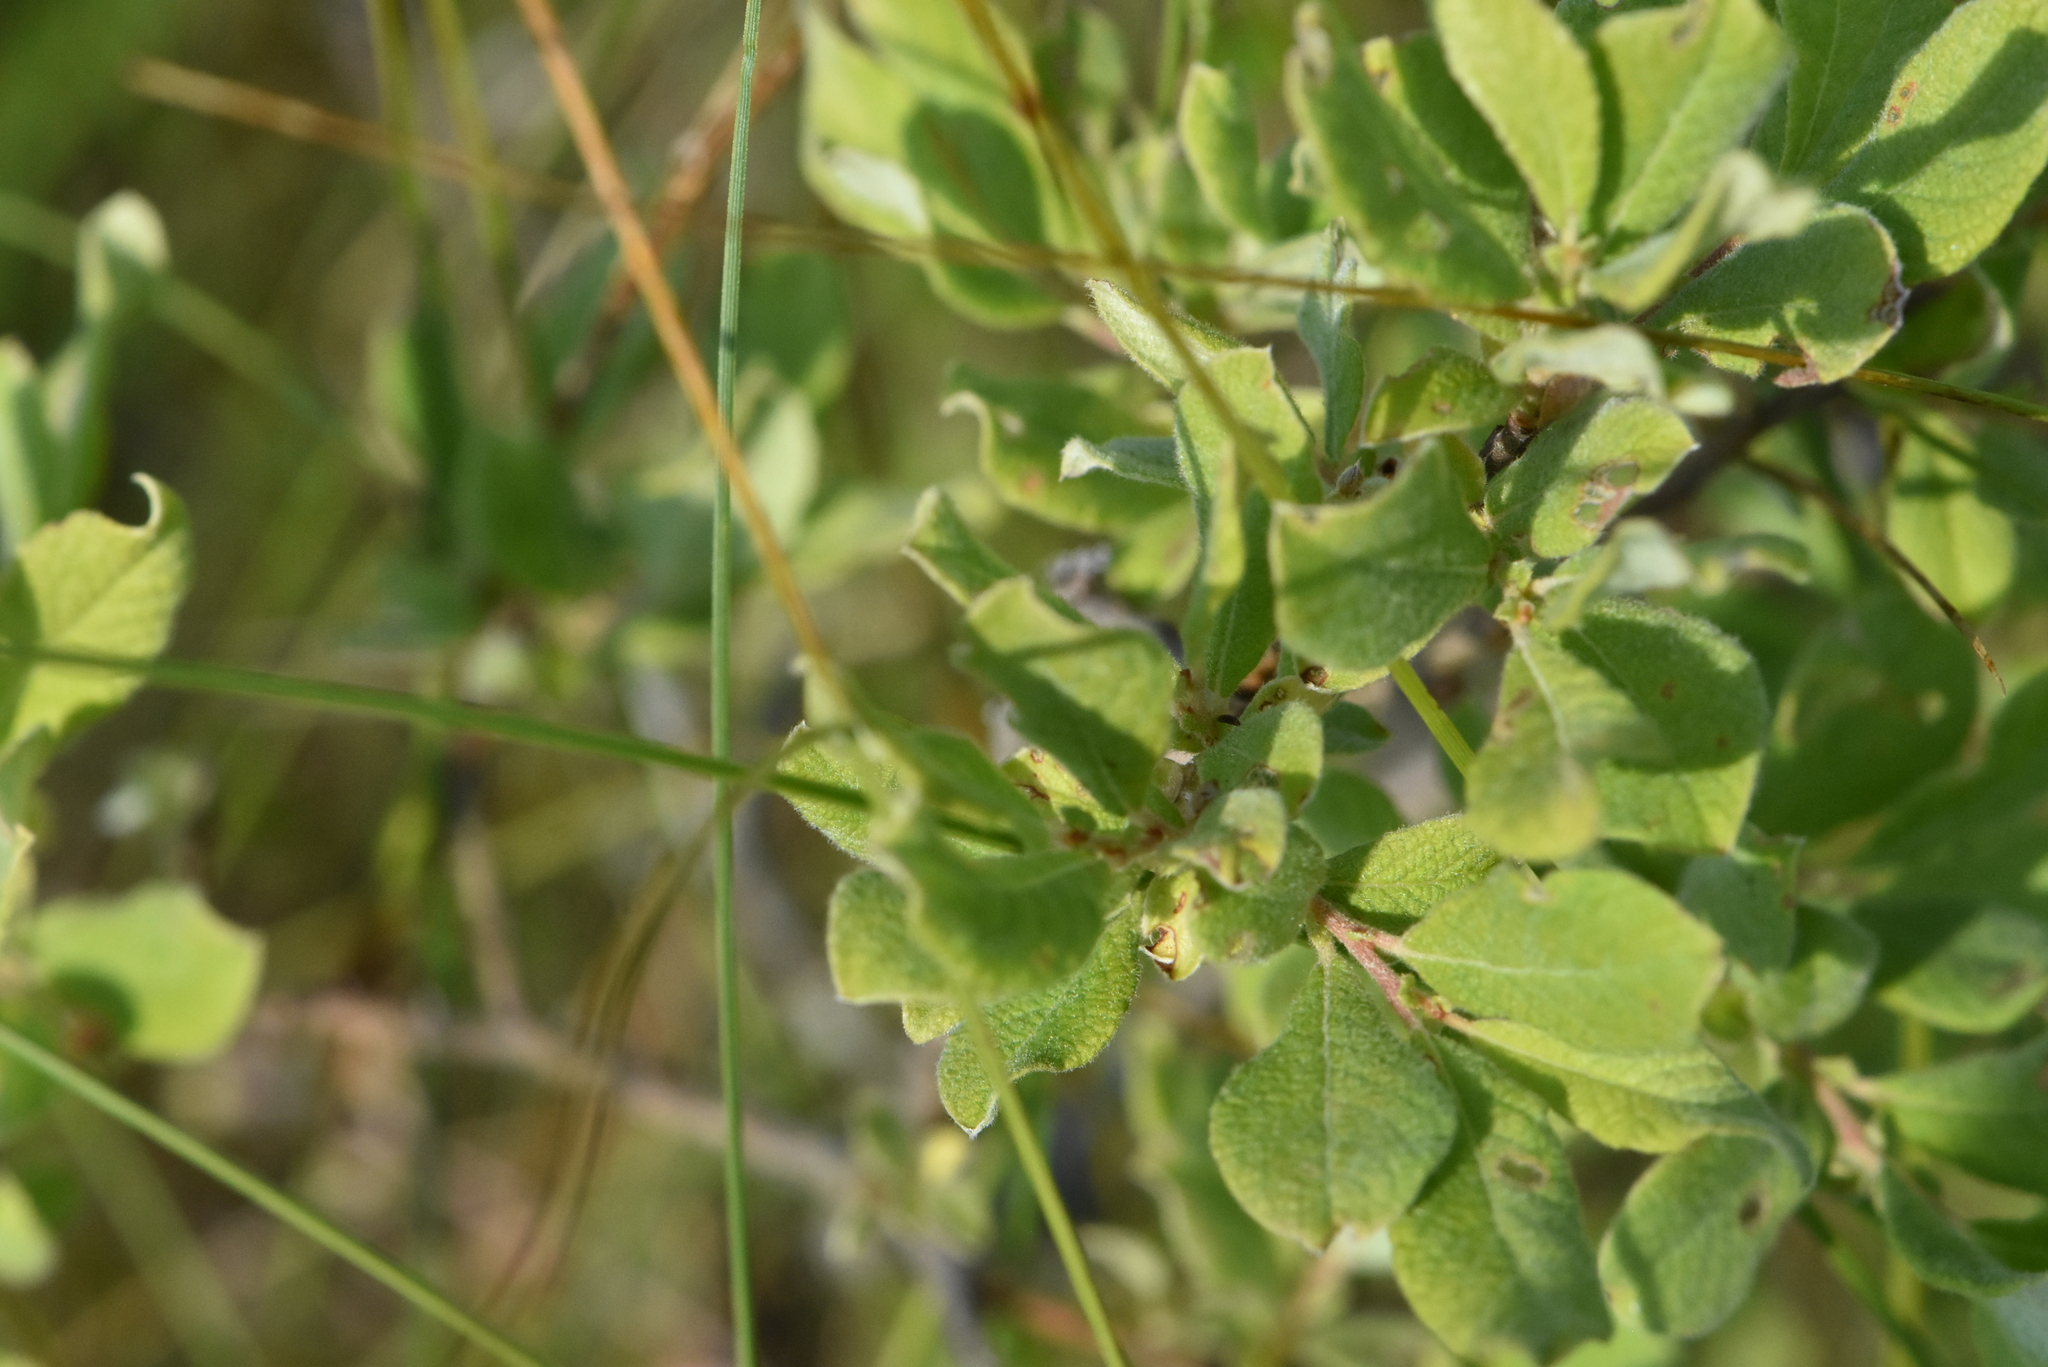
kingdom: Plantae
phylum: Tracheophyta
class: Magnoliopsida
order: Malpighiales
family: Salicaceae
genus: Salix
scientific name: Salix aurita
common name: Eared willow
